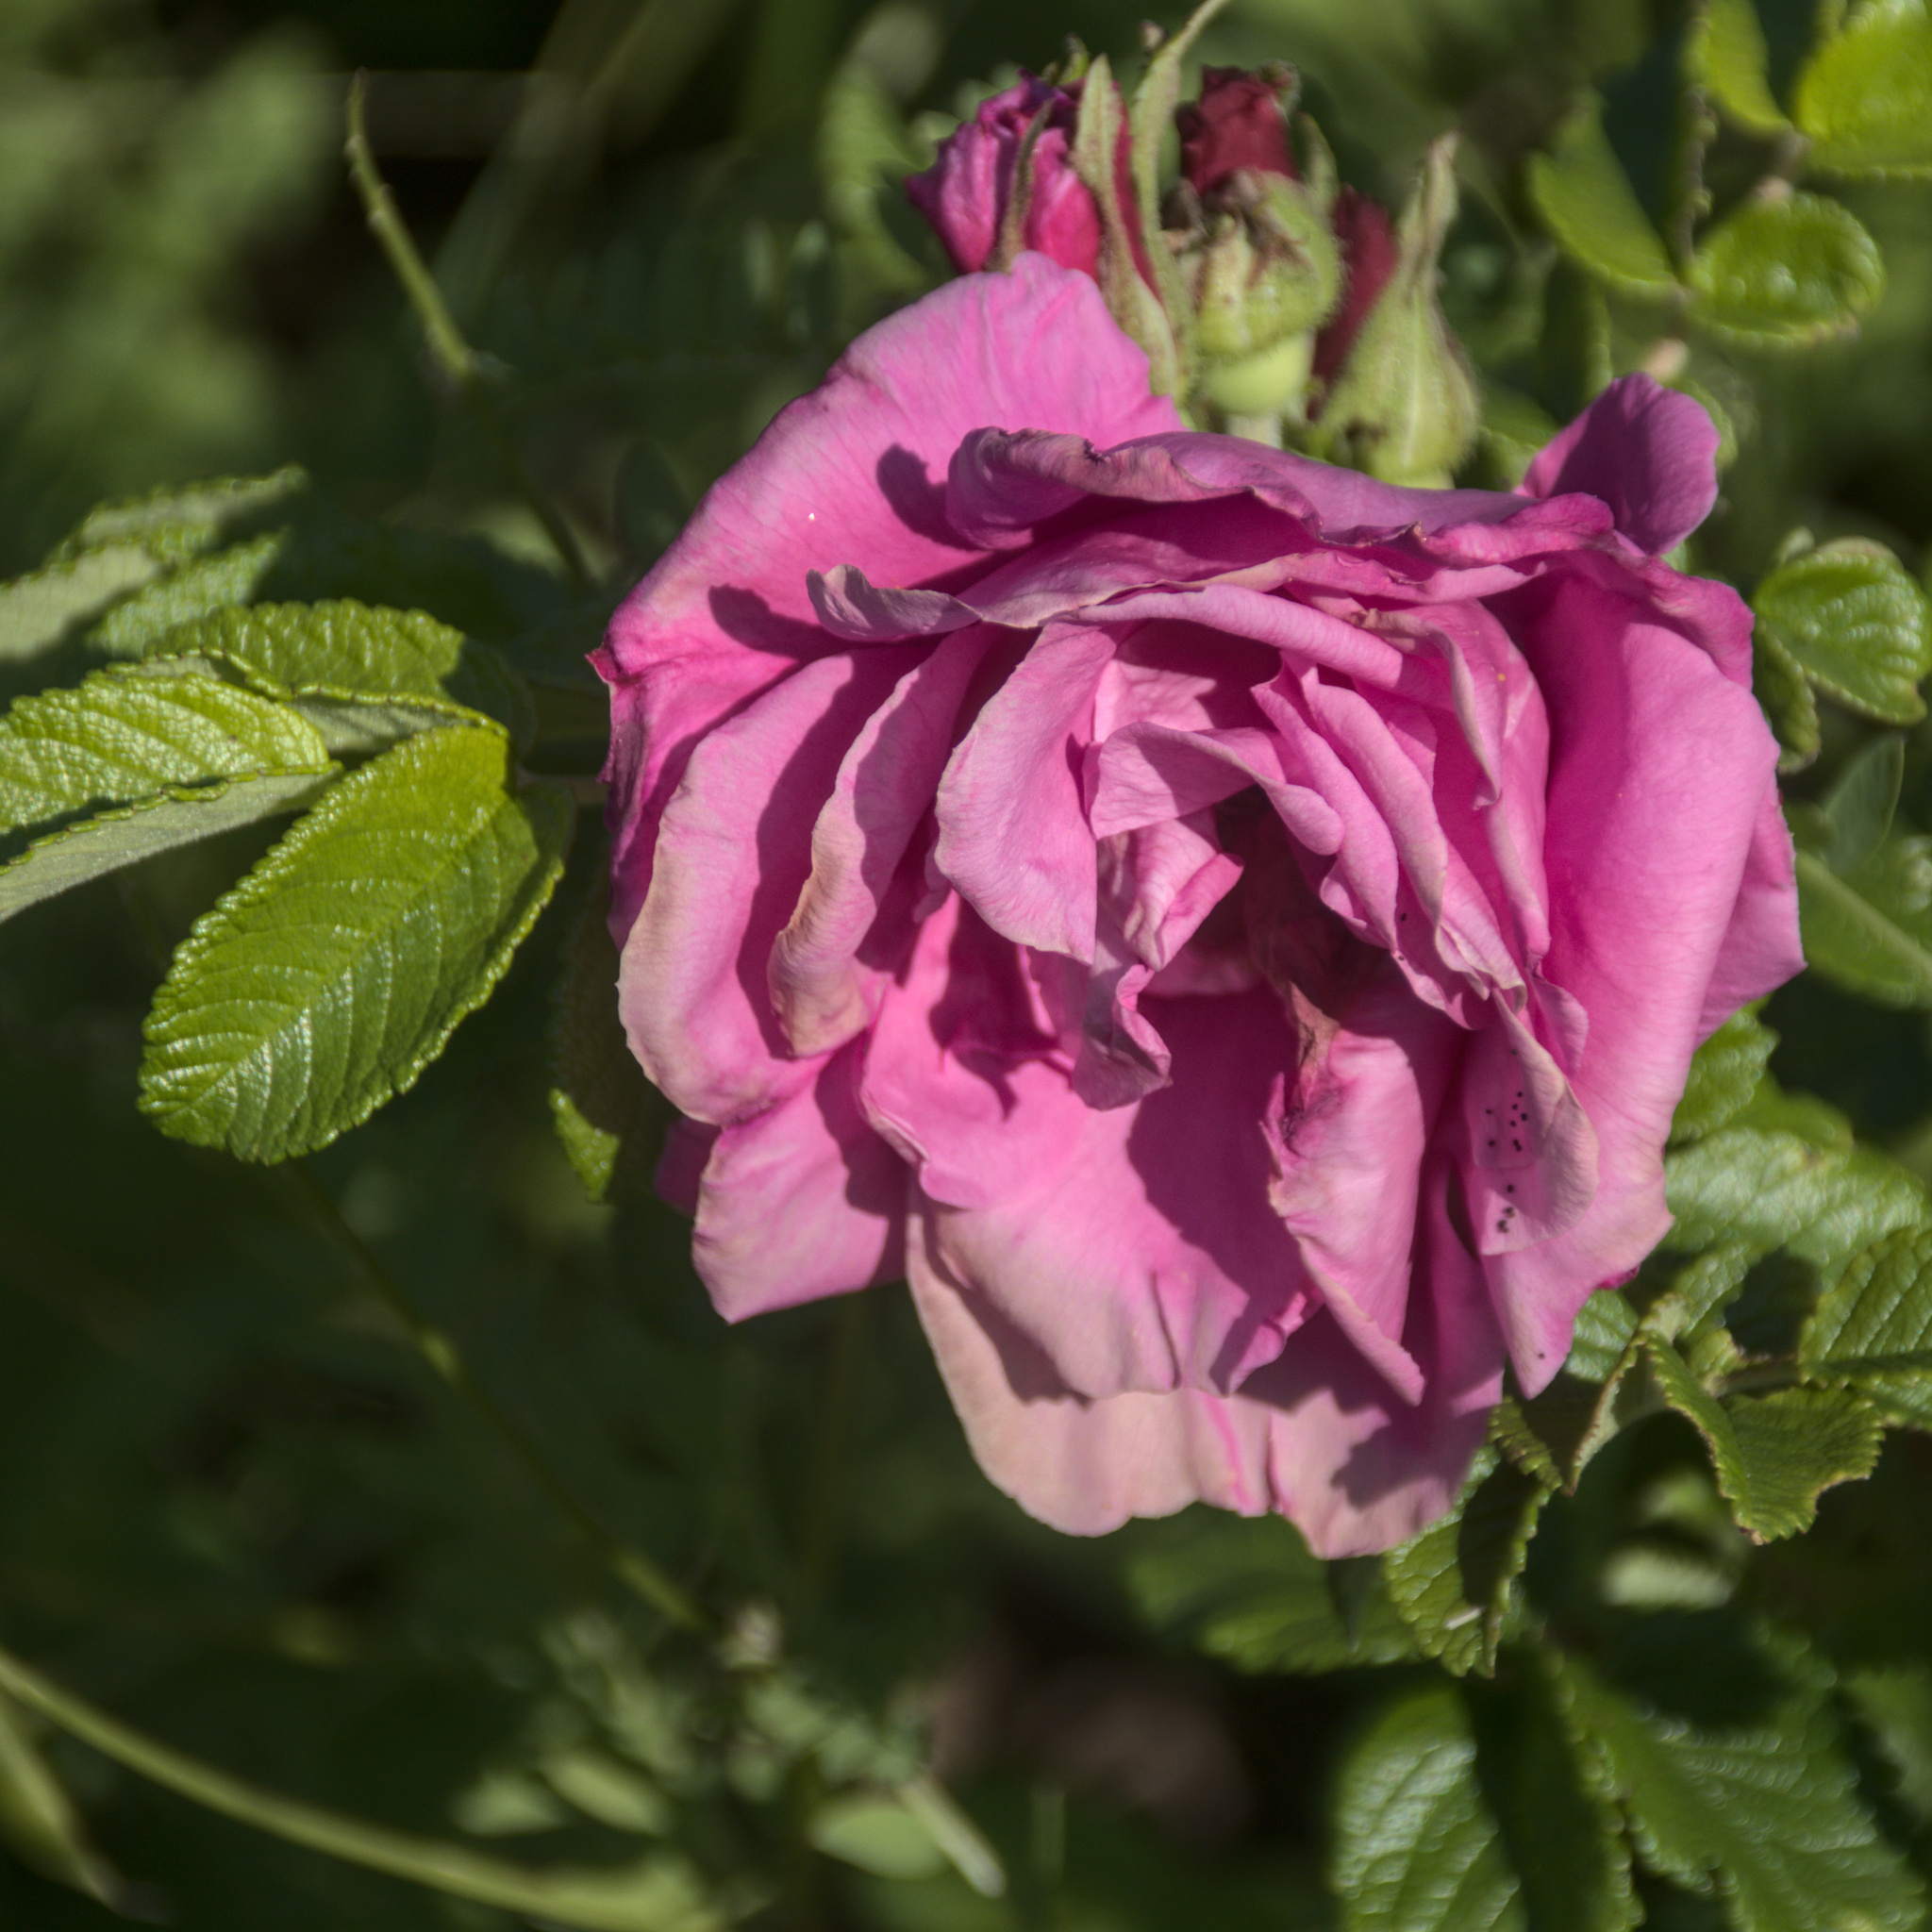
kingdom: Plantae
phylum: Tracheophyta
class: Magnoliopsida
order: Rosales
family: Rosaceae
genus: Rosa
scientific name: Rosa rugosa
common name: Japanese rose
